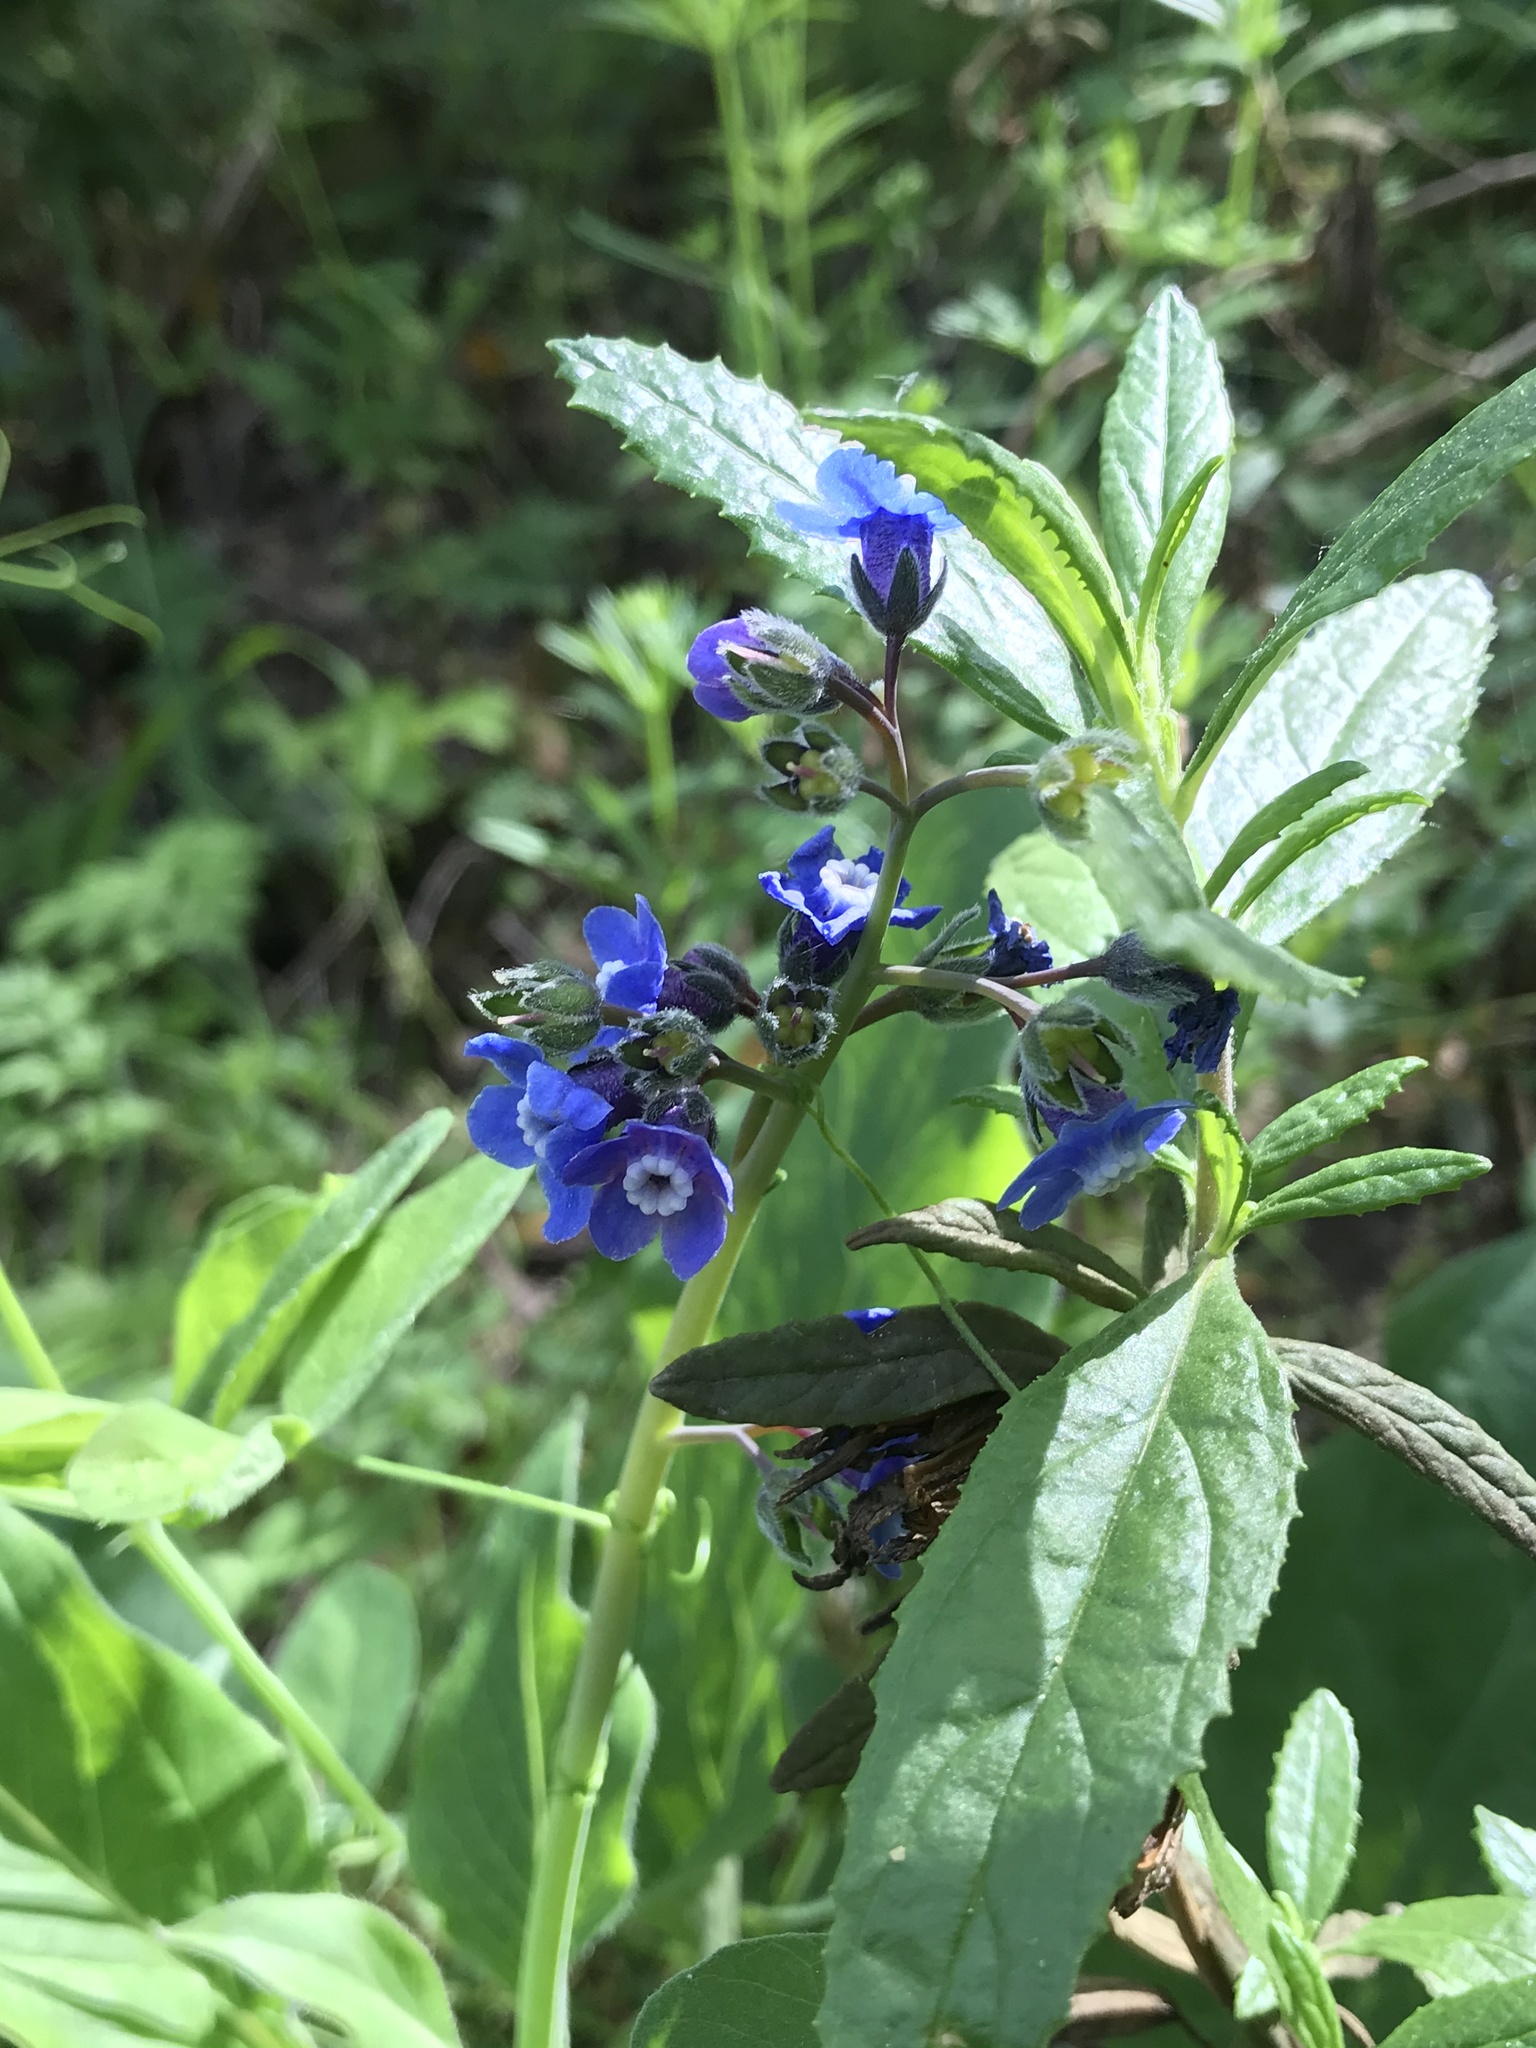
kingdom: Plantae
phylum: Tracheophyta
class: Magnoliopsida
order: Boraginales
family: Boraginaceae
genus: Adelinia
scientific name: Adelinia grande
